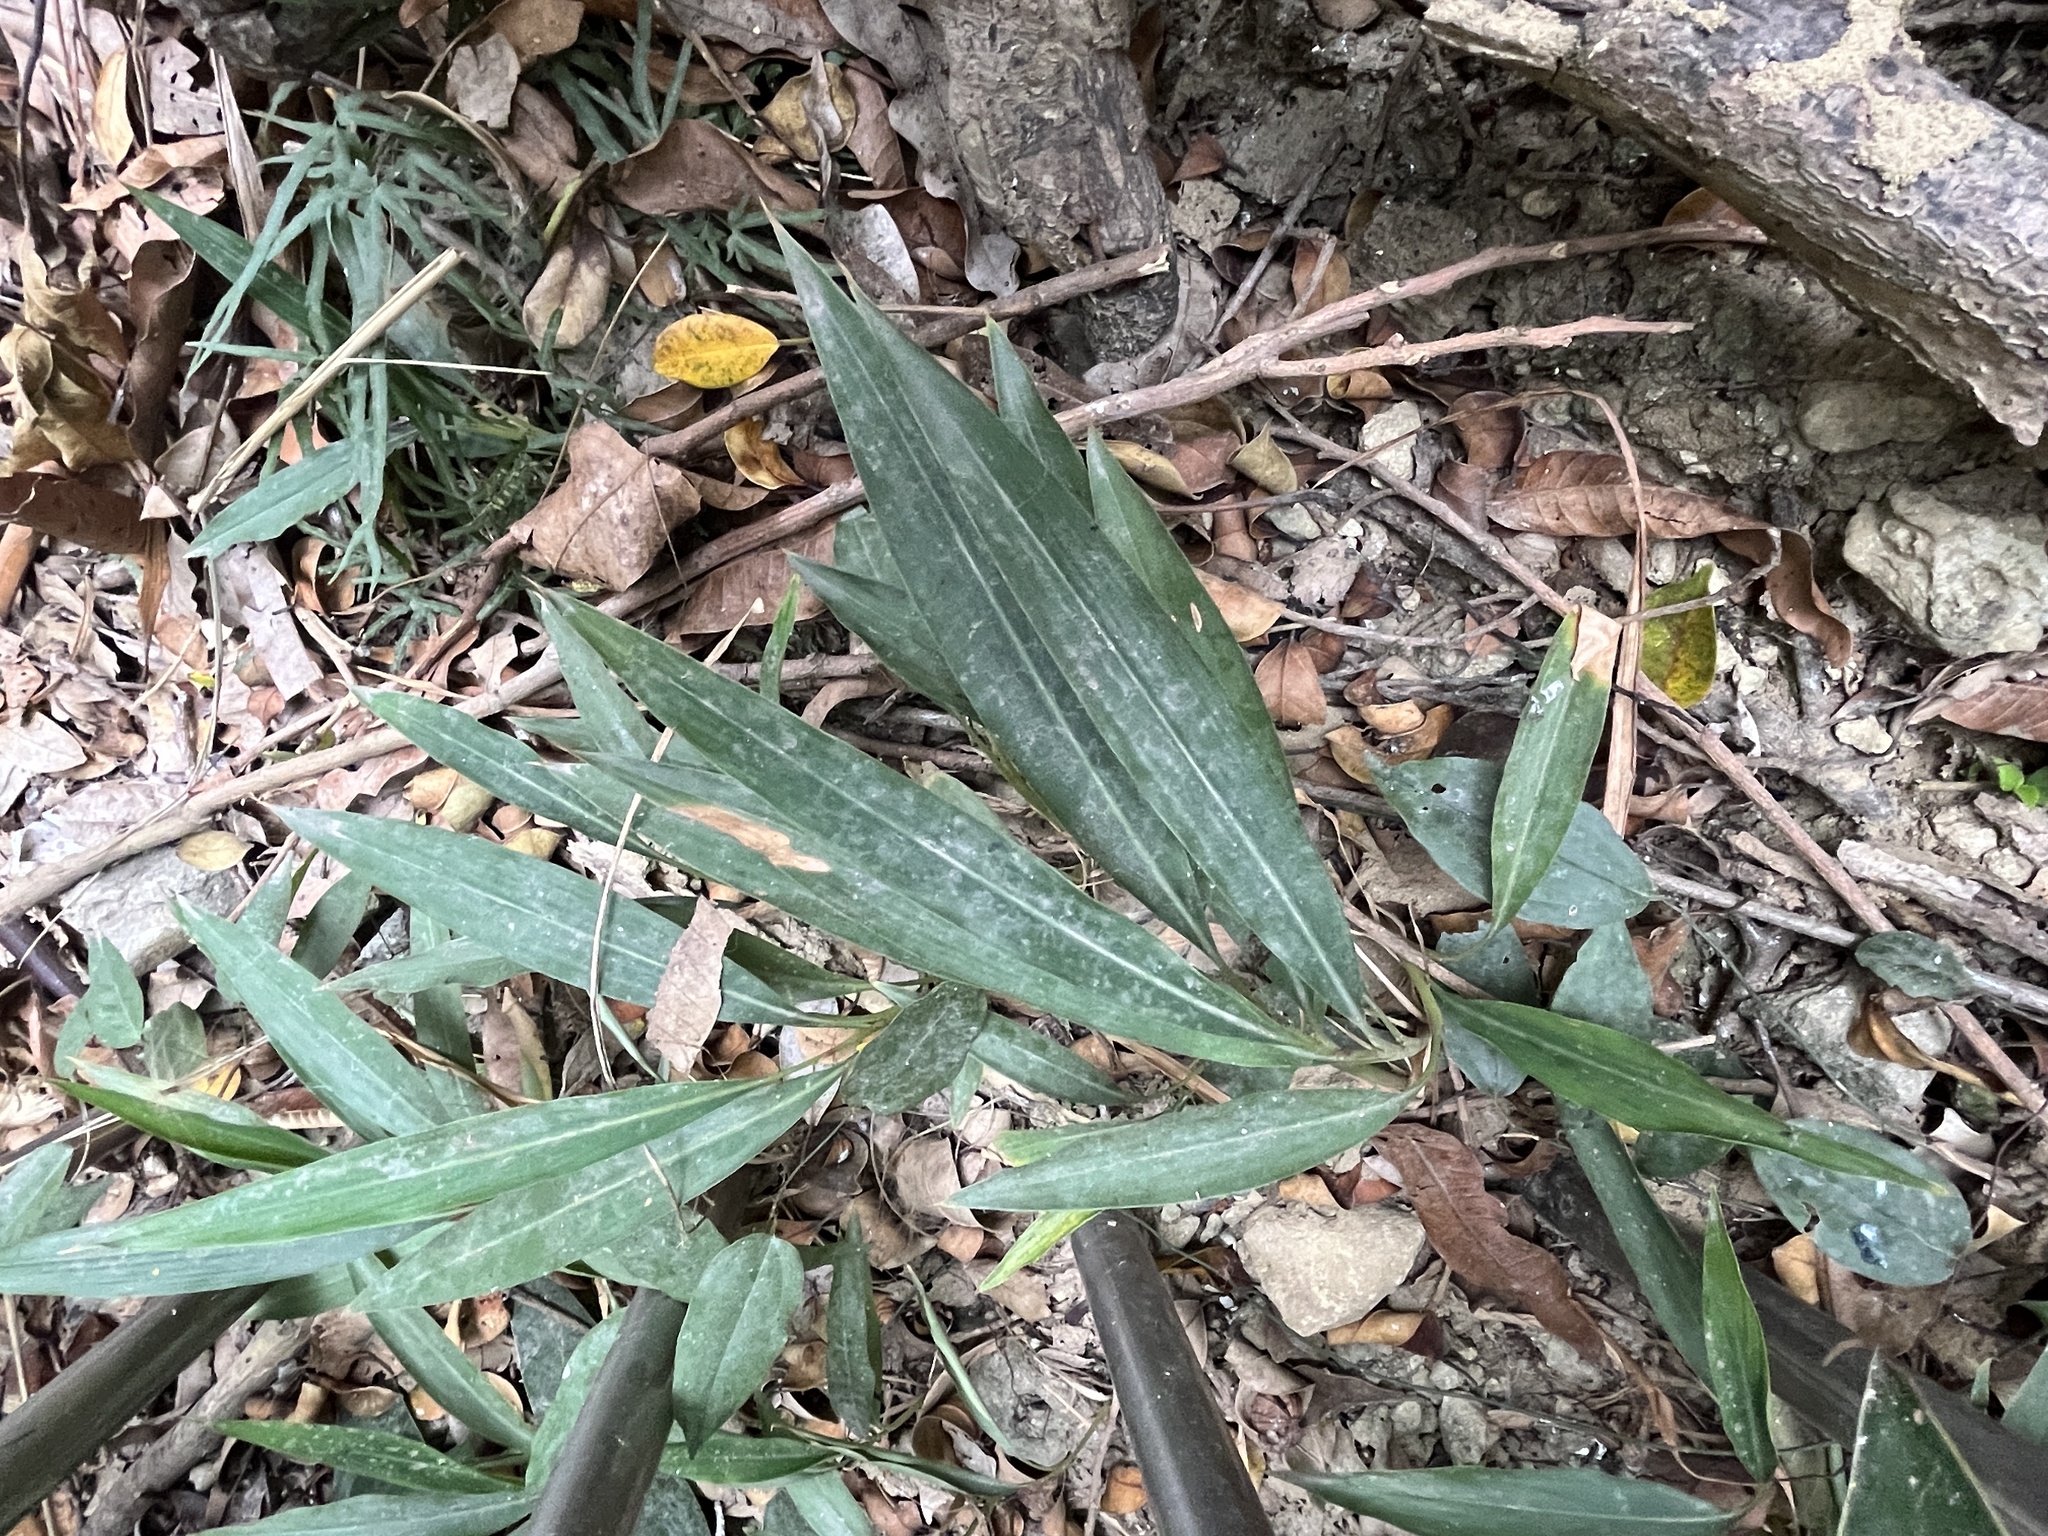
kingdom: Plantae
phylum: Tracheophyta
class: Liliopsida
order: Zingiberales
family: Zingiberaceae
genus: Alpinia
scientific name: Alpinia zerumbet
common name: Shellplant
